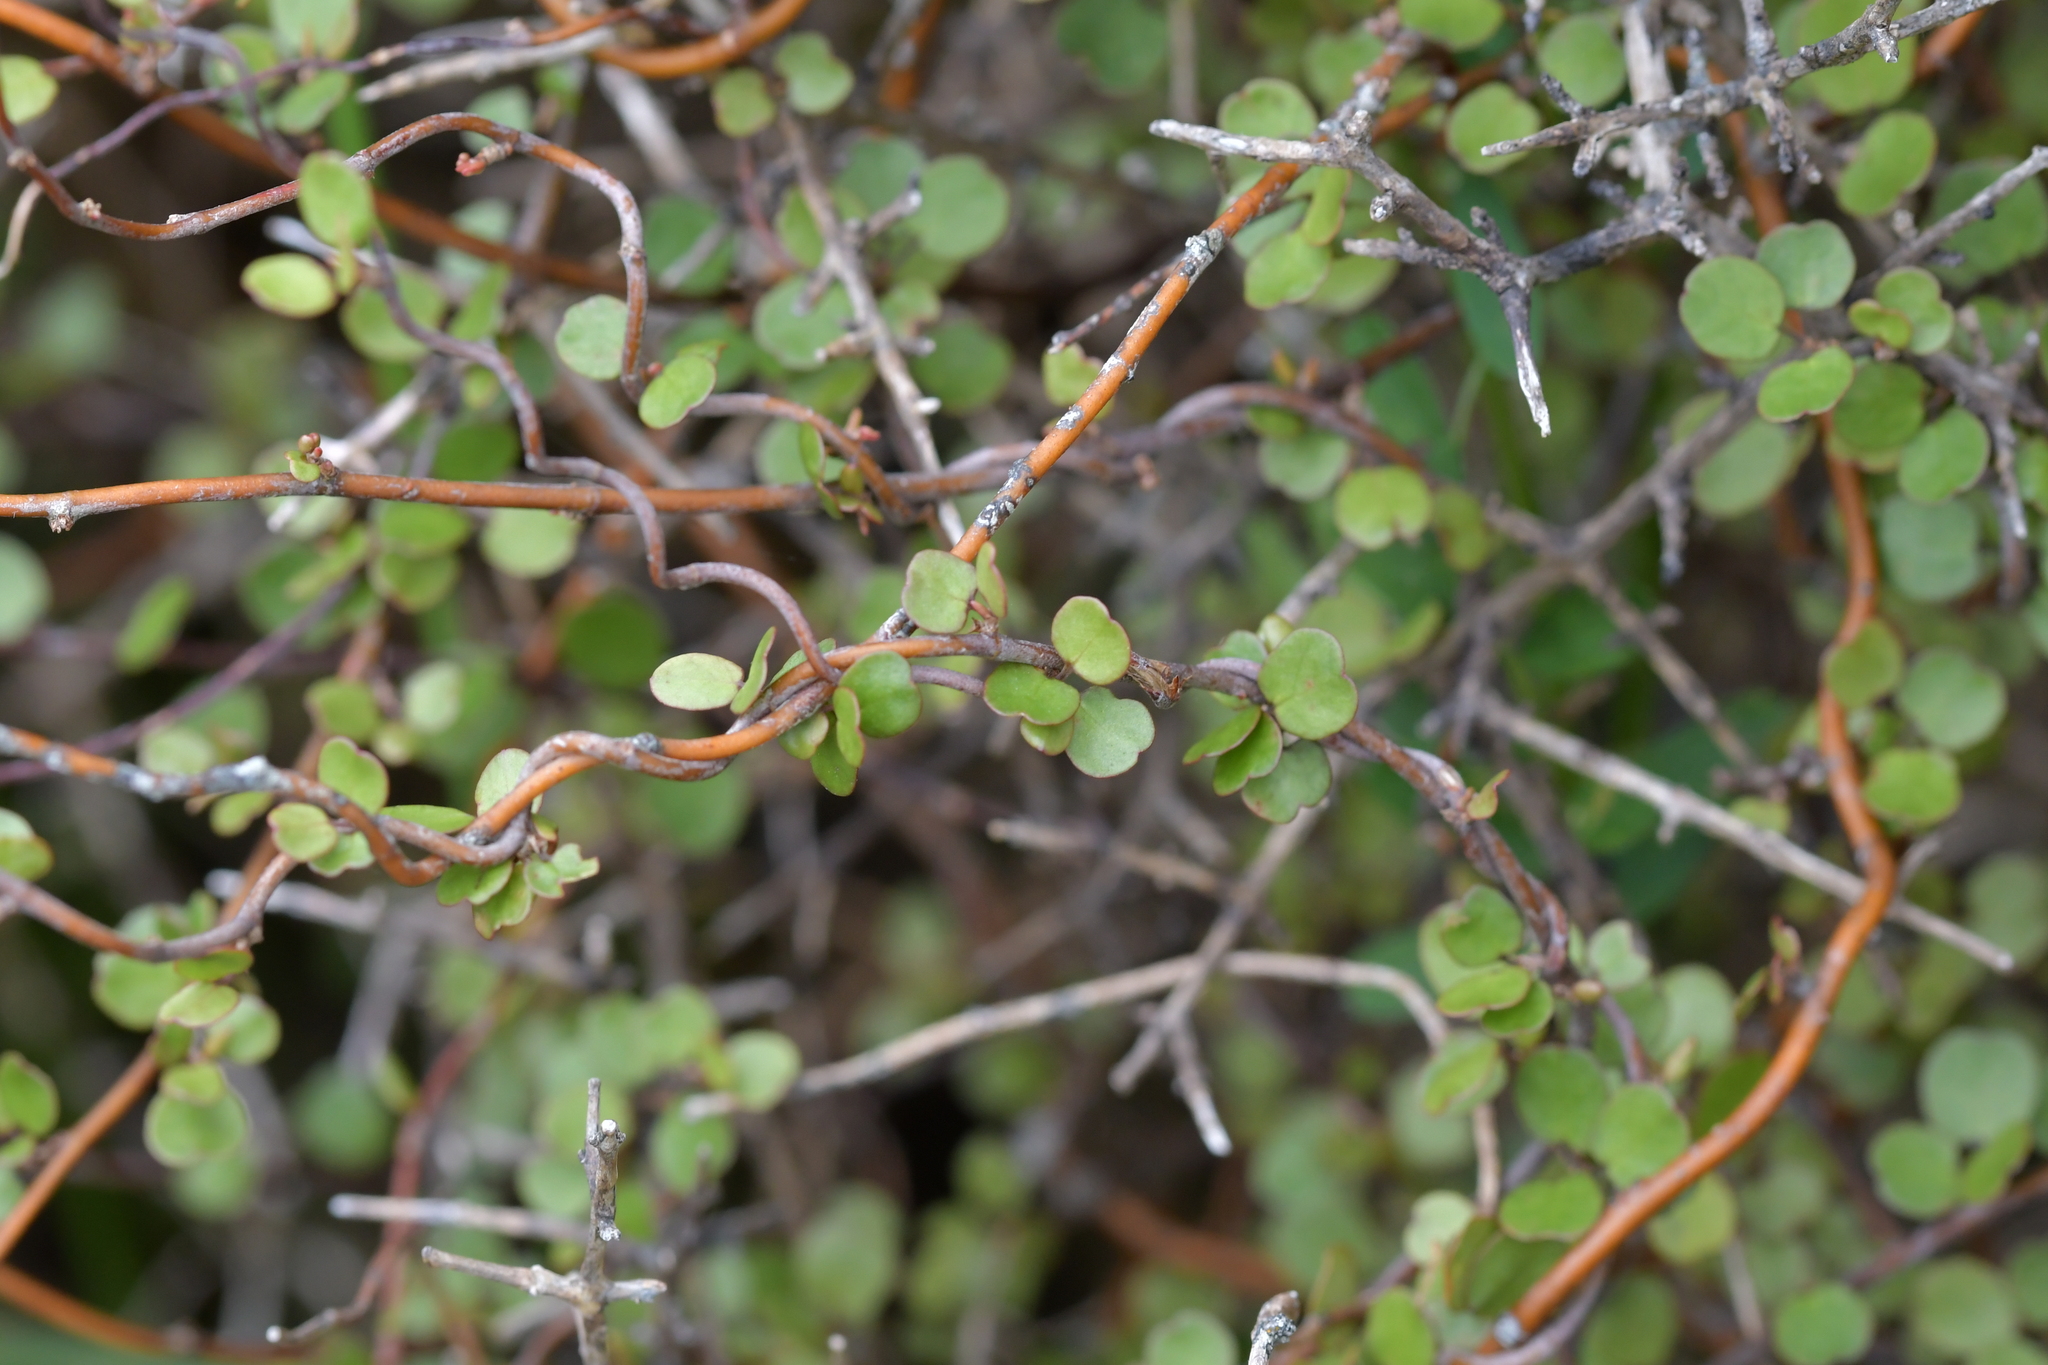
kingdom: Plantae
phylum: Tracheophyta
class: Magnoliopsida
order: Caryophyllales
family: Polygonaceae
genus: Muehlenbeckia
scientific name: Muehlenbeckia complexa
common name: Wireplant
